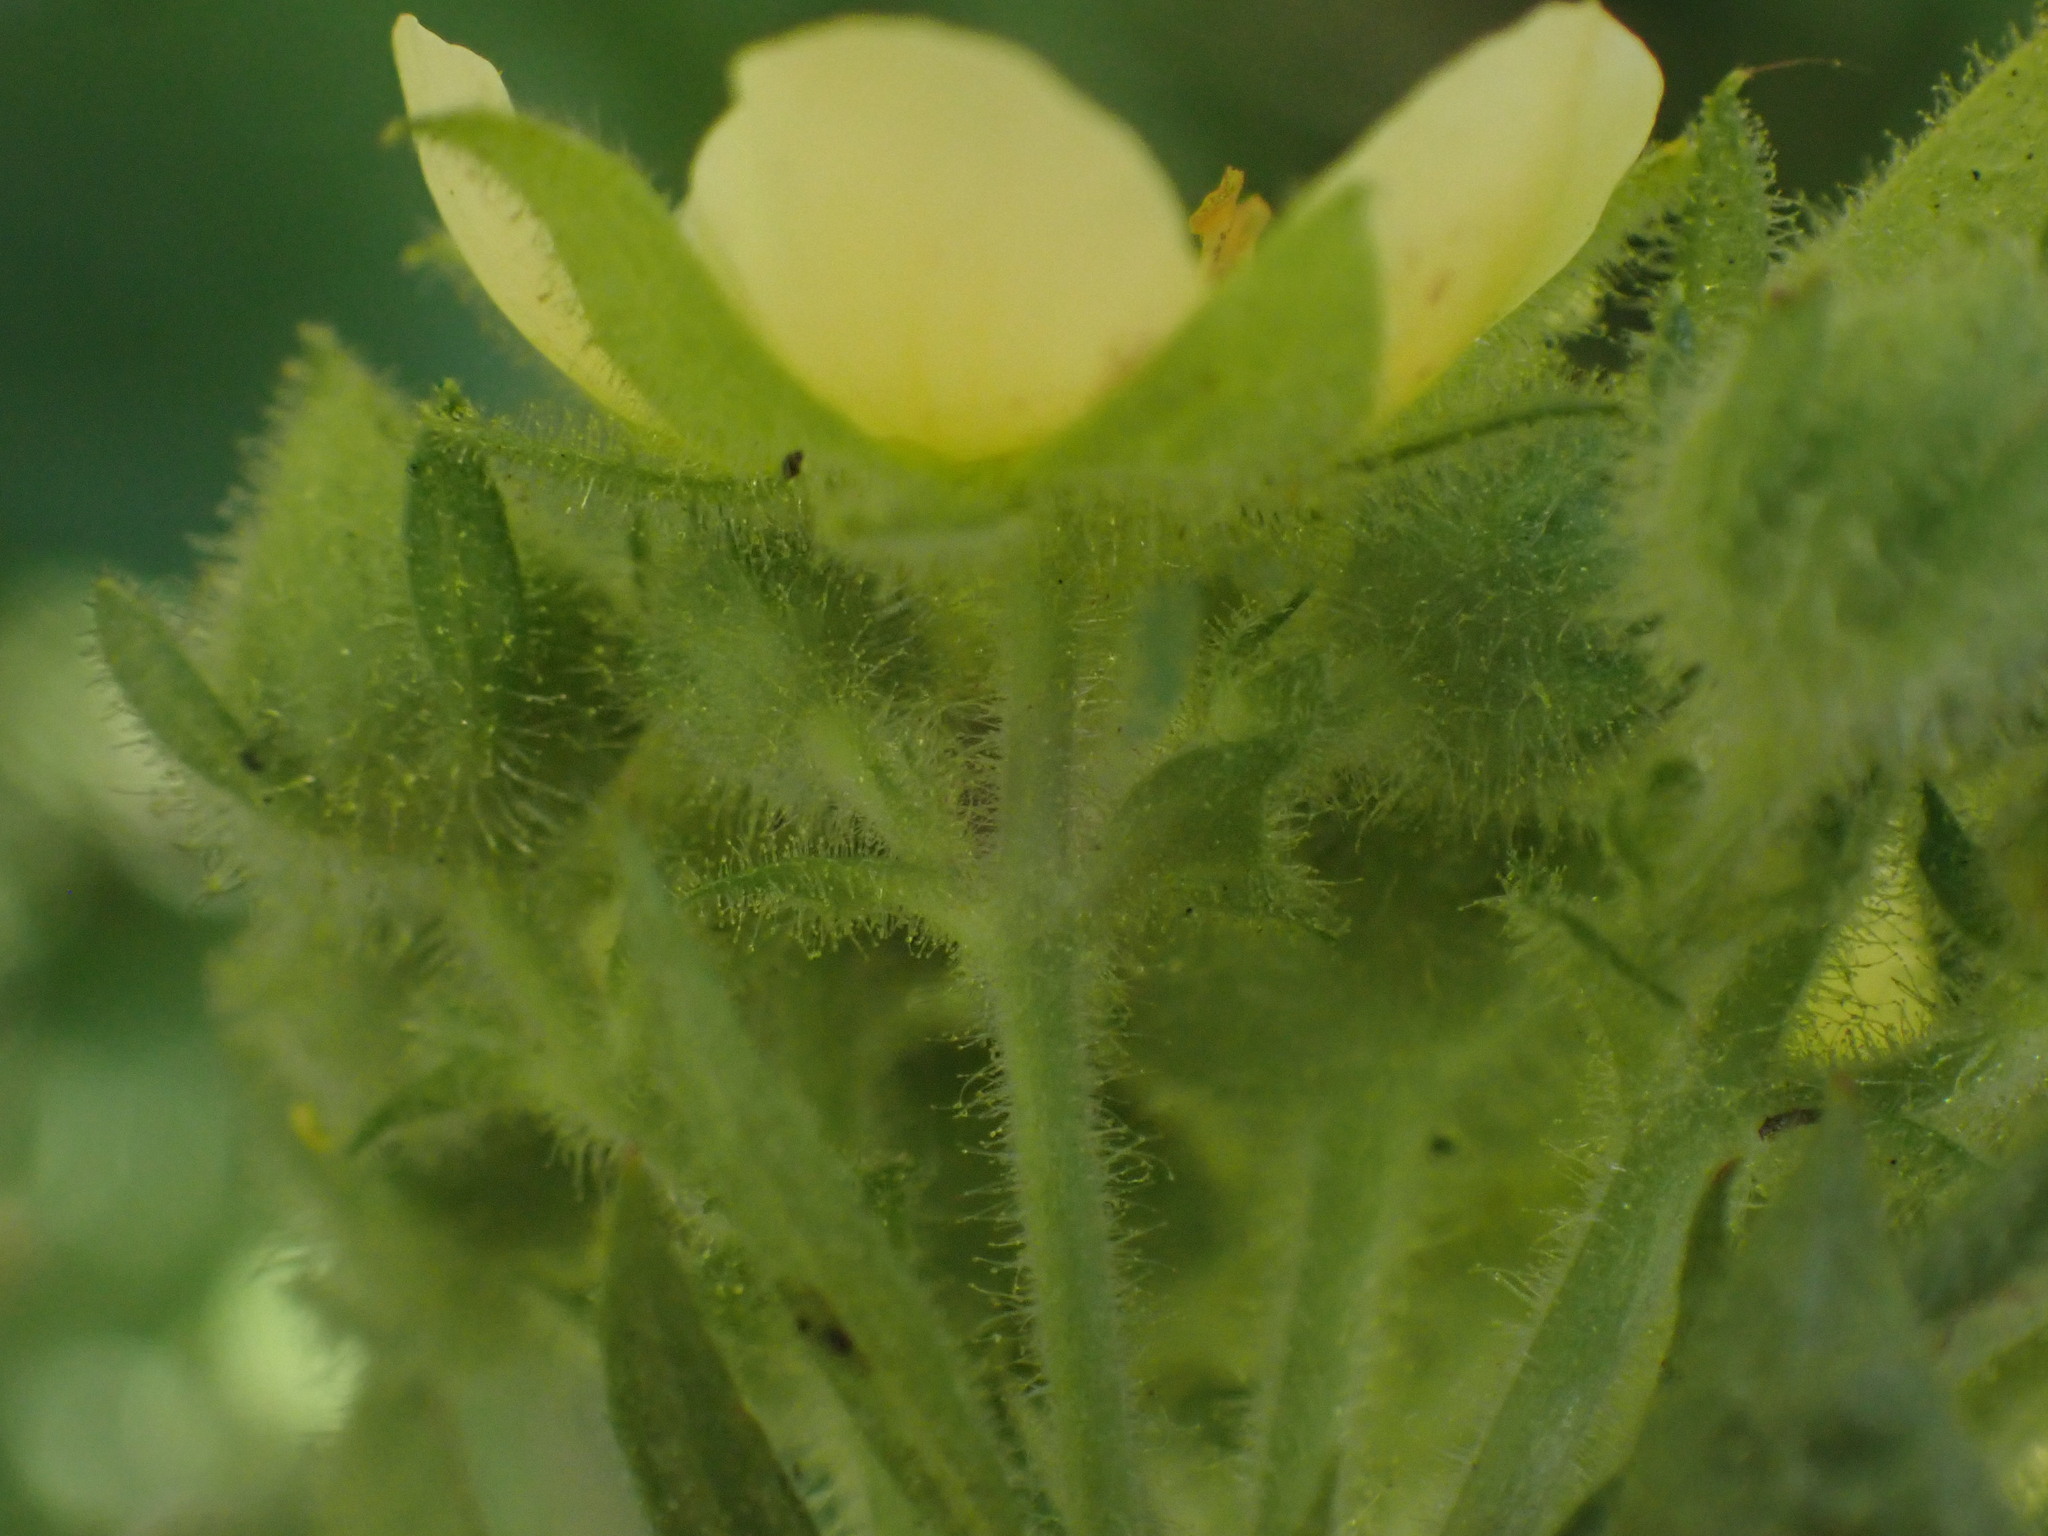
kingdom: Plantae
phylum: Tracheophyta
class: Magnoliopsida
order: Rosales
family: Rosaceae
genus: Drymocallis
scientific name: Drymocallis convallaria
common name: Cream cinquefoil
